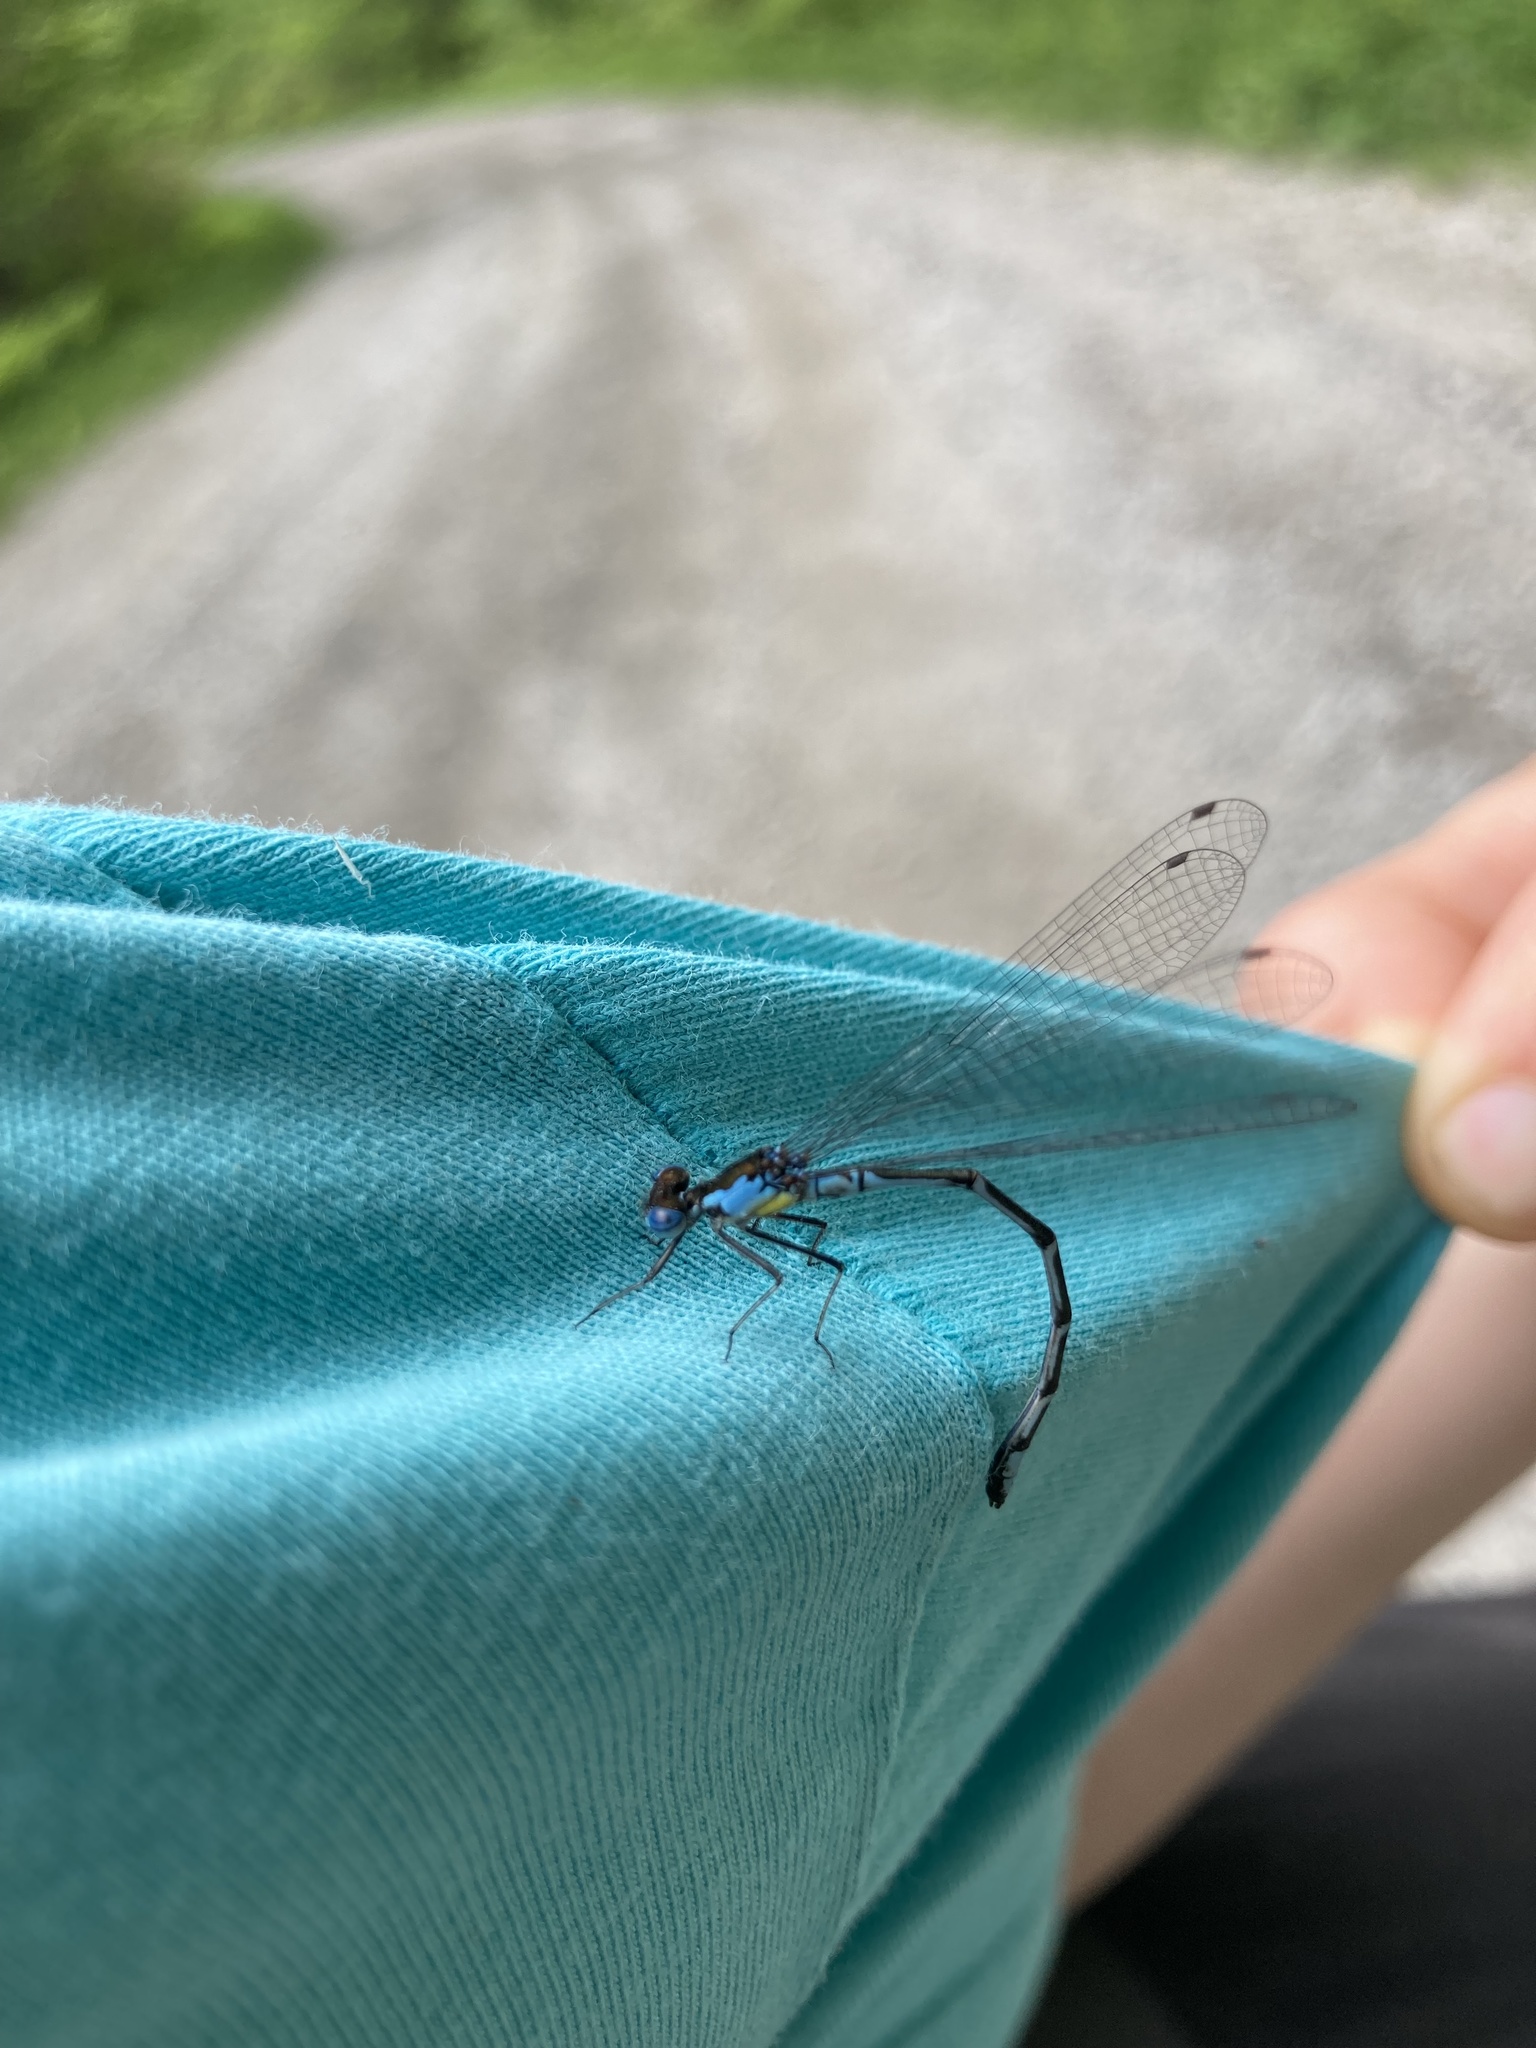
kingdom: Animalia
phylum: Arthropoda
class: Insecta
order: Odonata
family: Coenagrionidae
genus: Chromagrion
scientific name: Chromagrion conditum
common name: Aurora damsel
